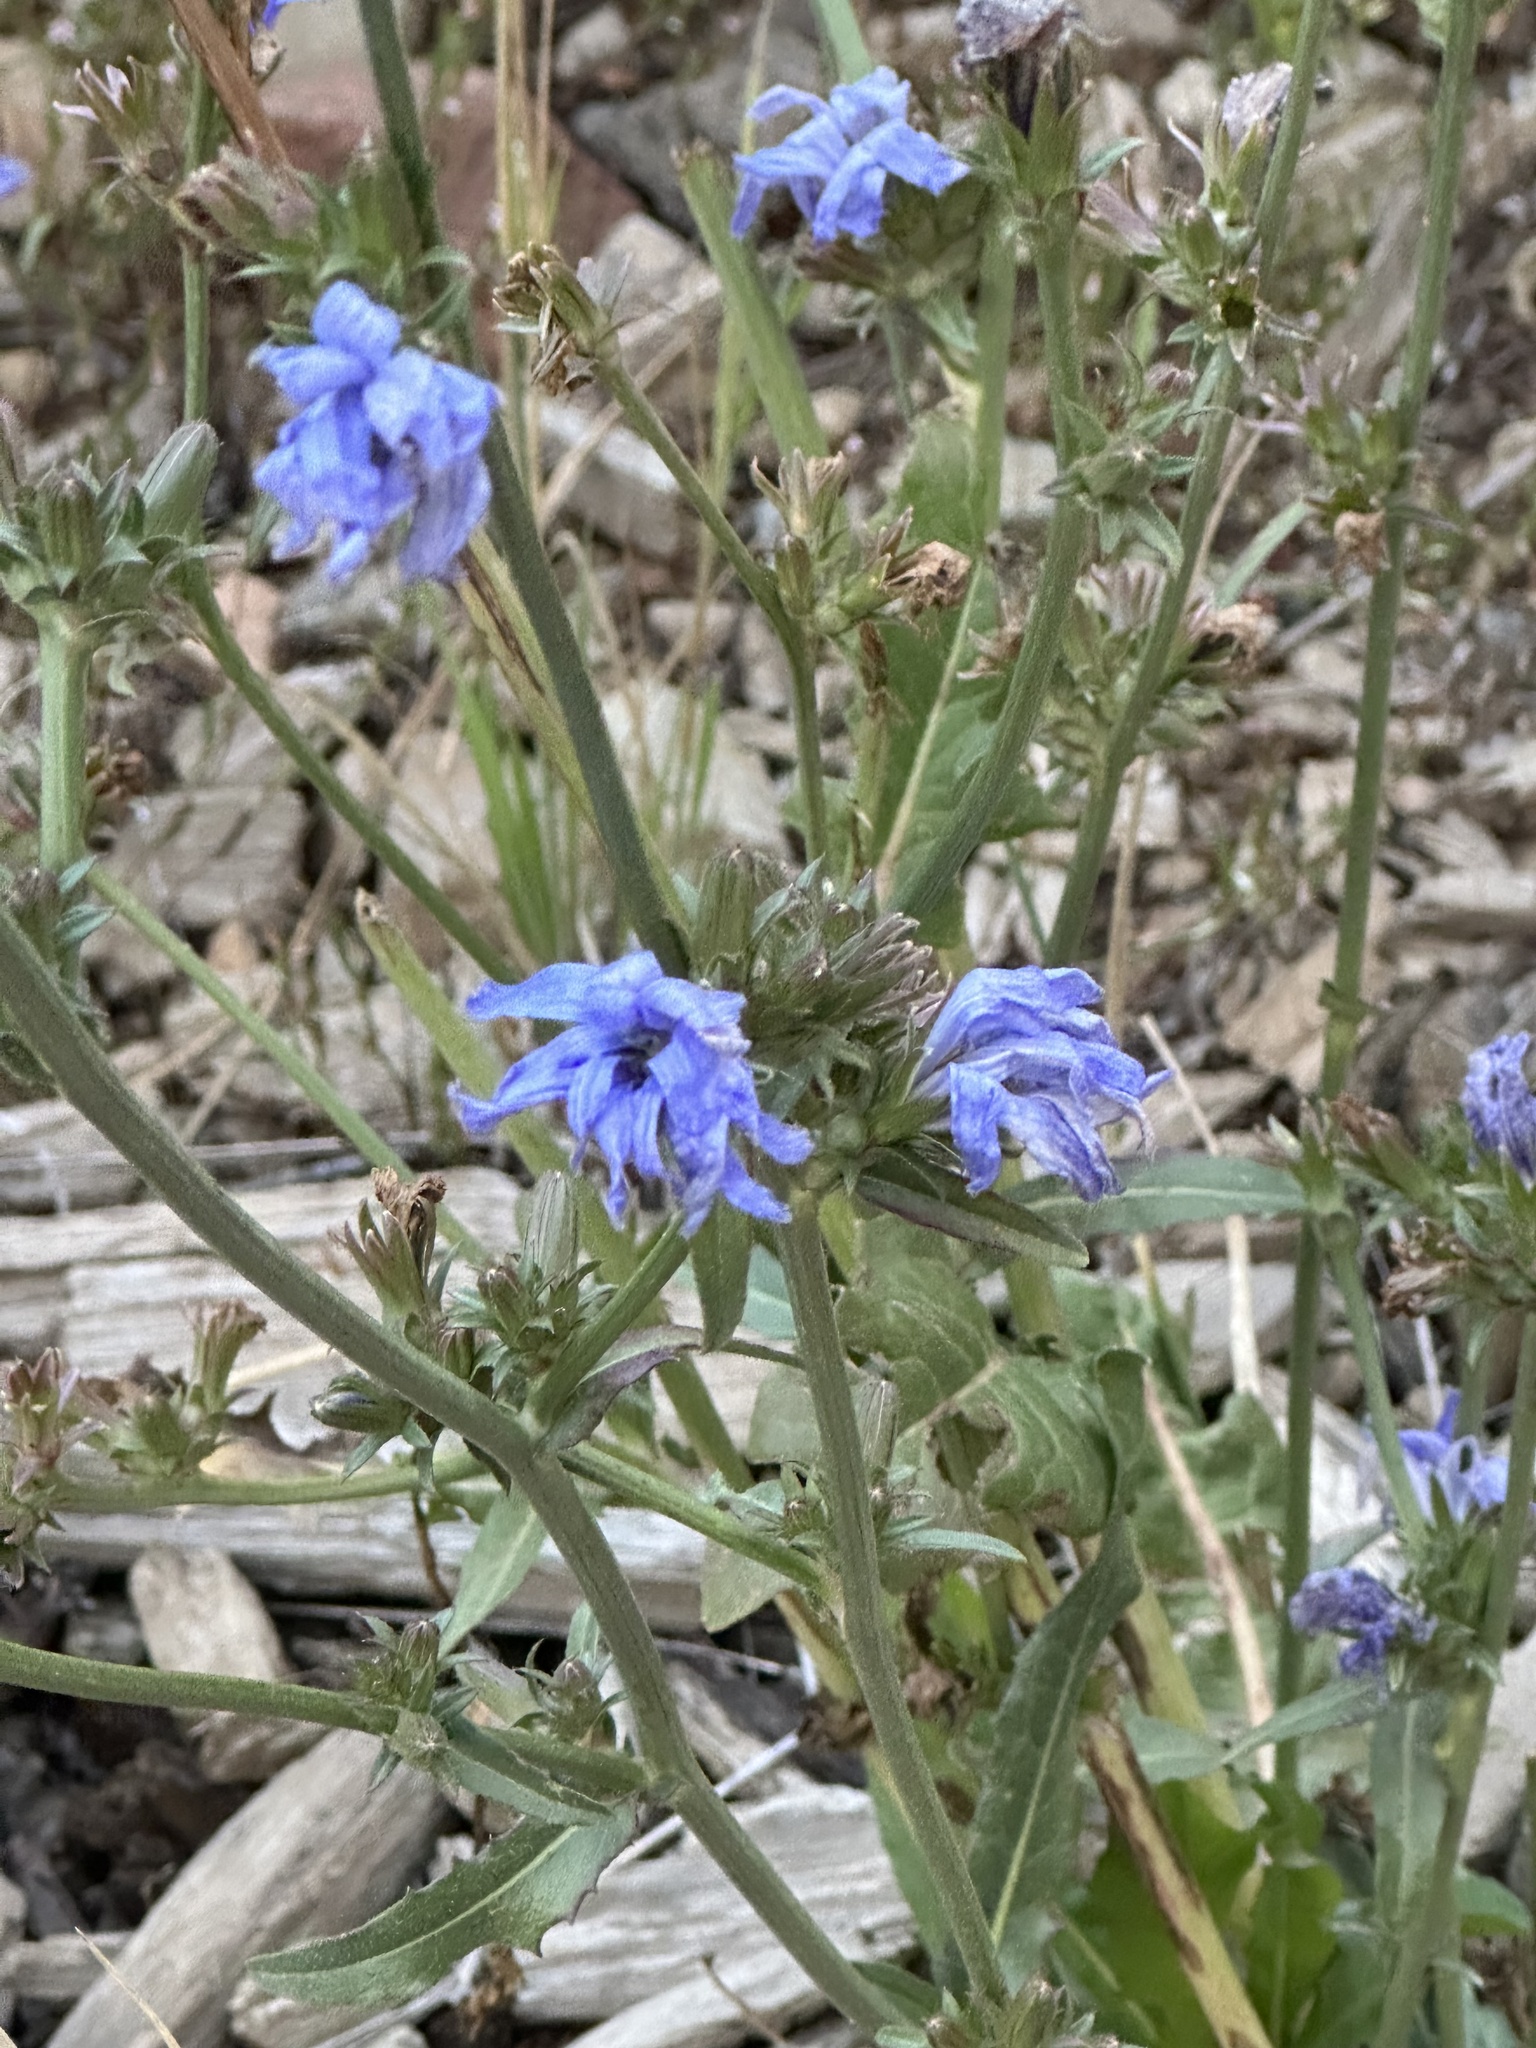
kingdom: Plantae
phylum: Tracheophyta
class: Magnoliopsida
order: Asterales
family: Asteraceae
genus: Cichorium
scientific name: Cichorium intybus
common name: Chicory
